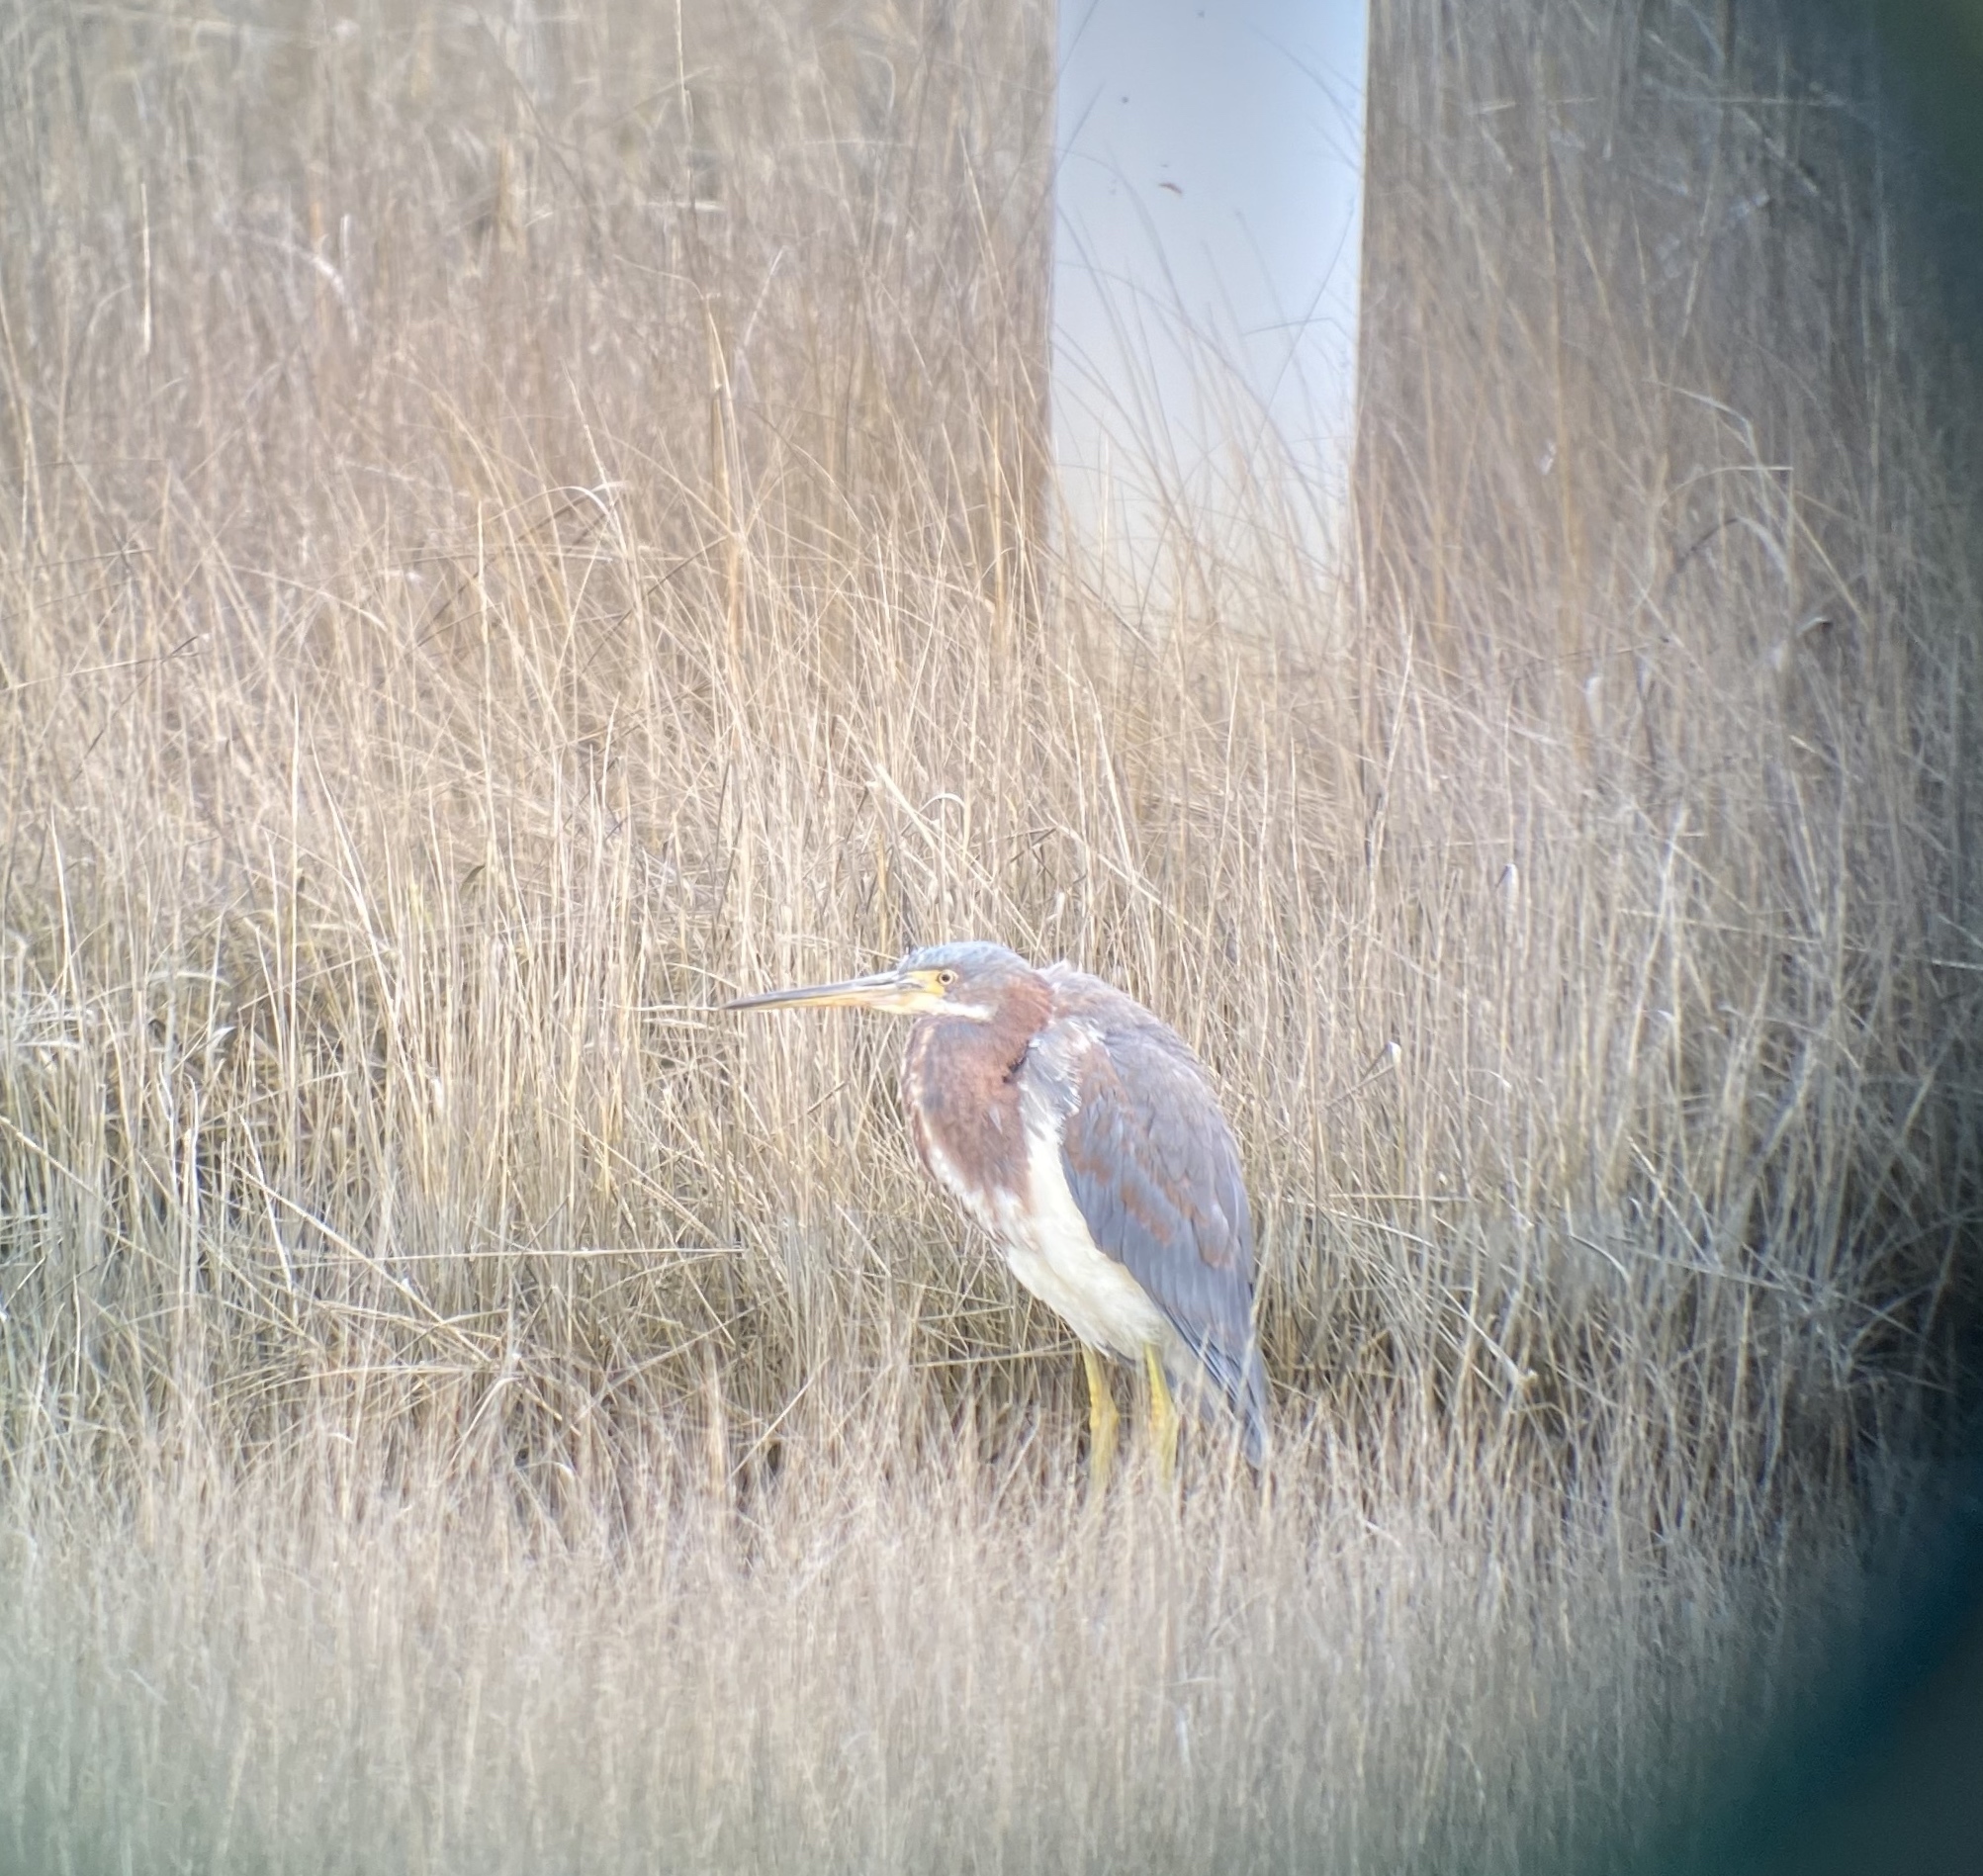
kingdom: Animalia
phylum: Chordata
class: Aves
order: Pelecaniformes
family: Ardeidae
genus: Egretta
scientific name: Egretta tricolor
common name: Tricolored heron
